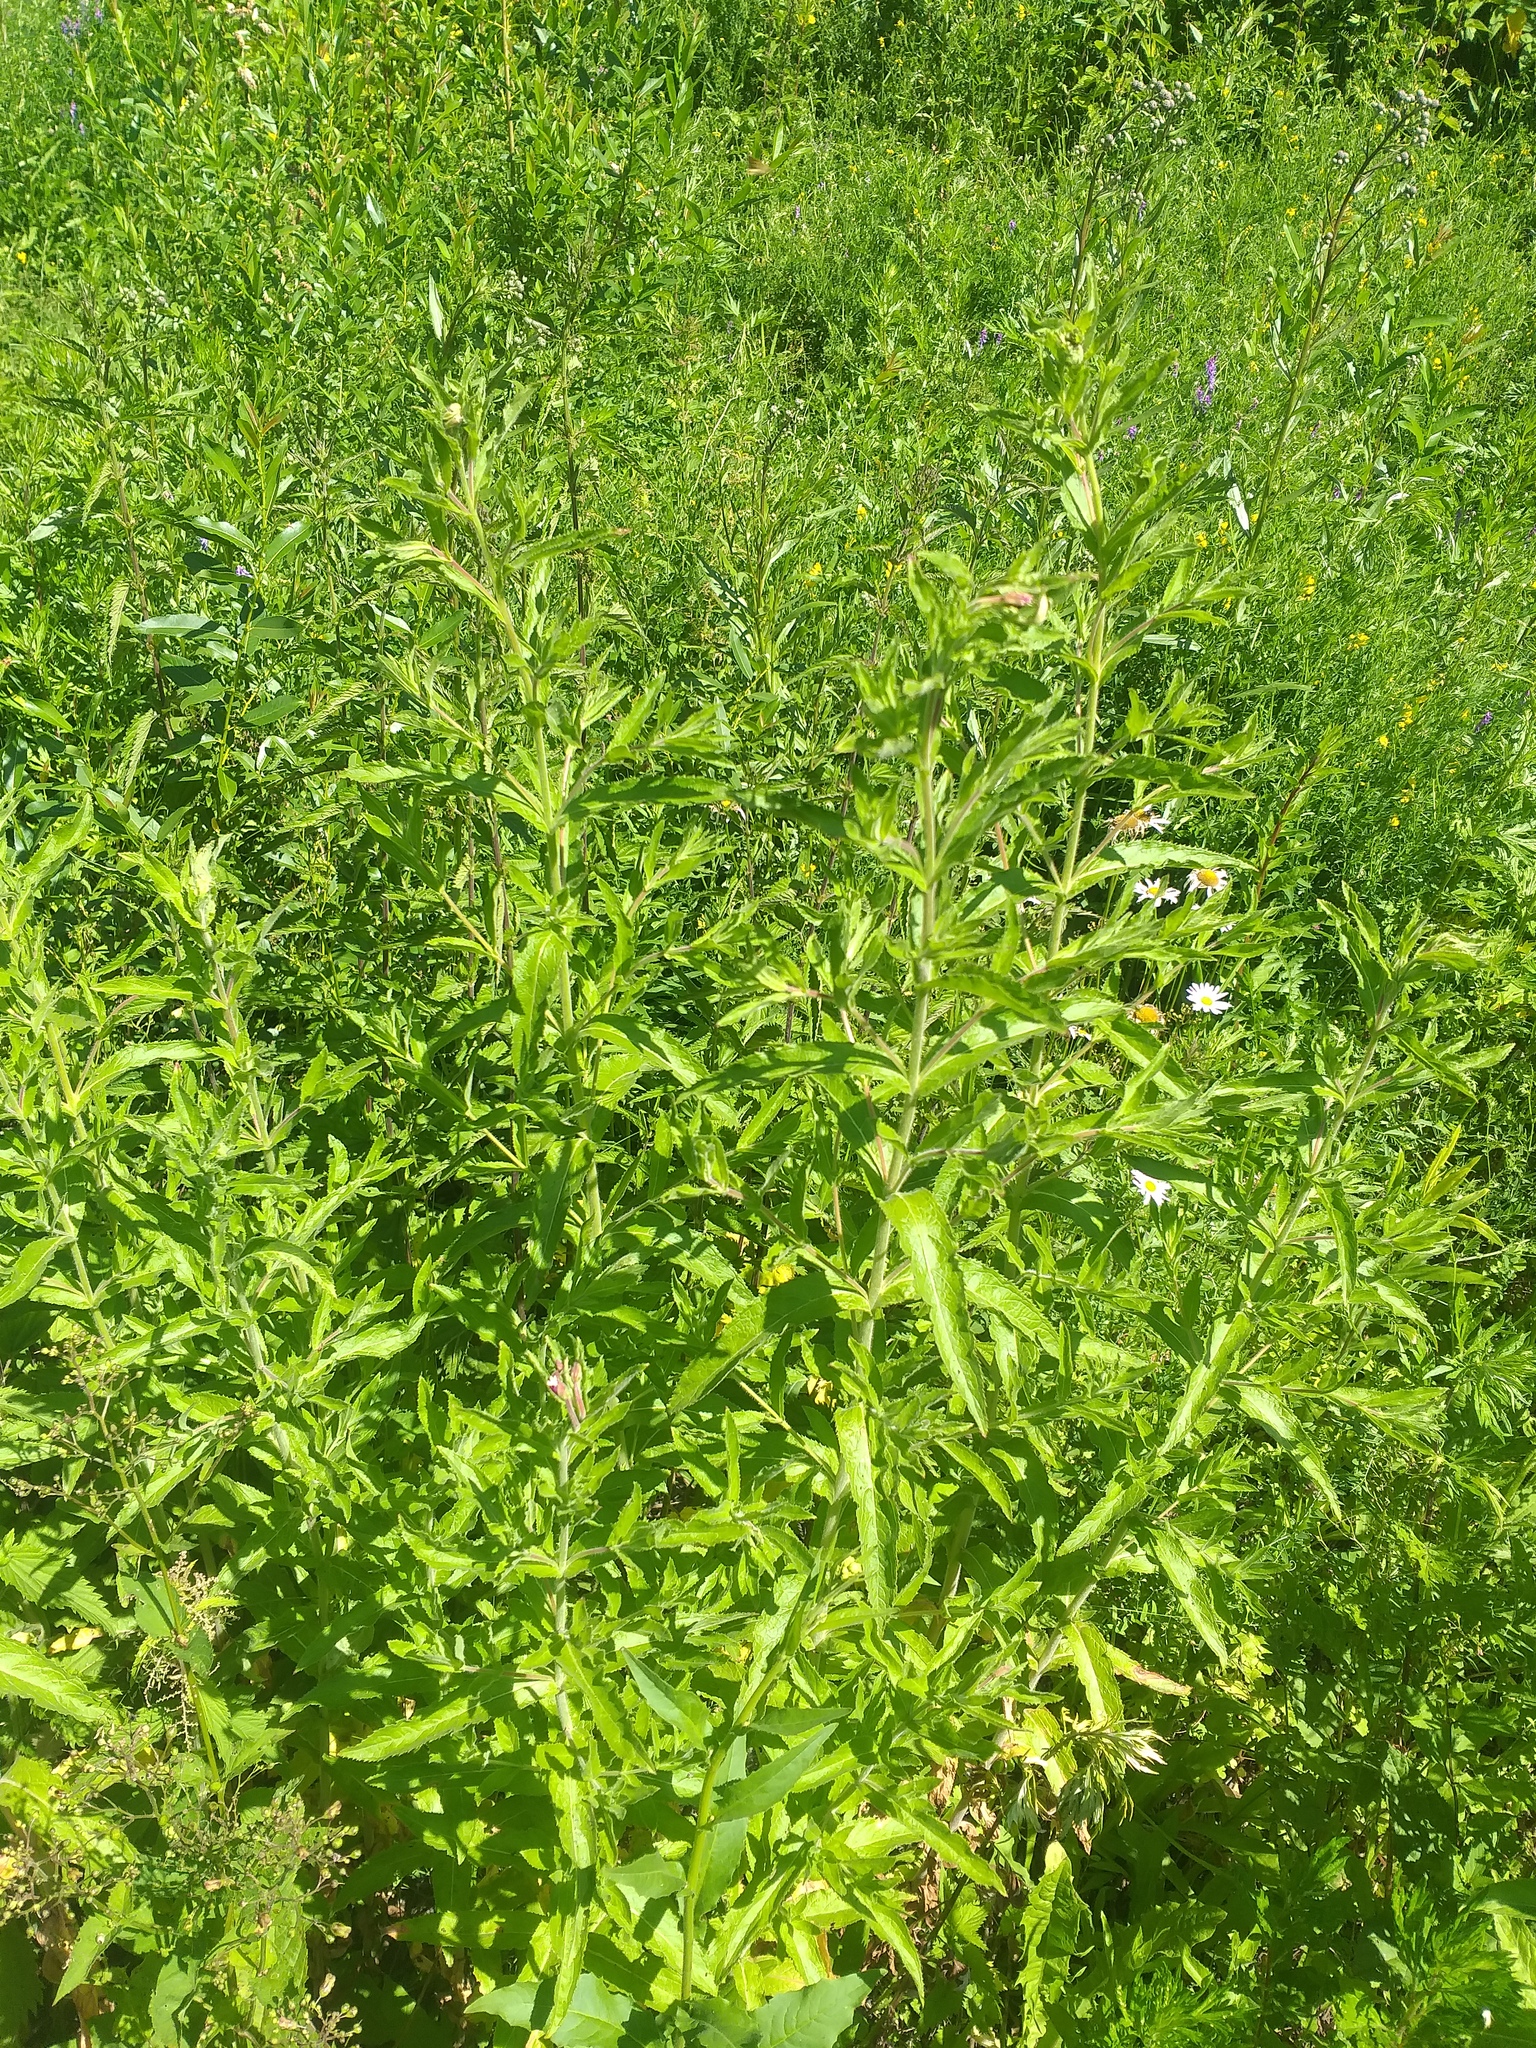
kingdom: Plantae
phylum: Tracheophyta
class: Magnoliopsida
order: Myrtales
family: Onagraceae
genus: Epilobium
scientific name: Epilobium hirsutum
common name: Great willowherb
